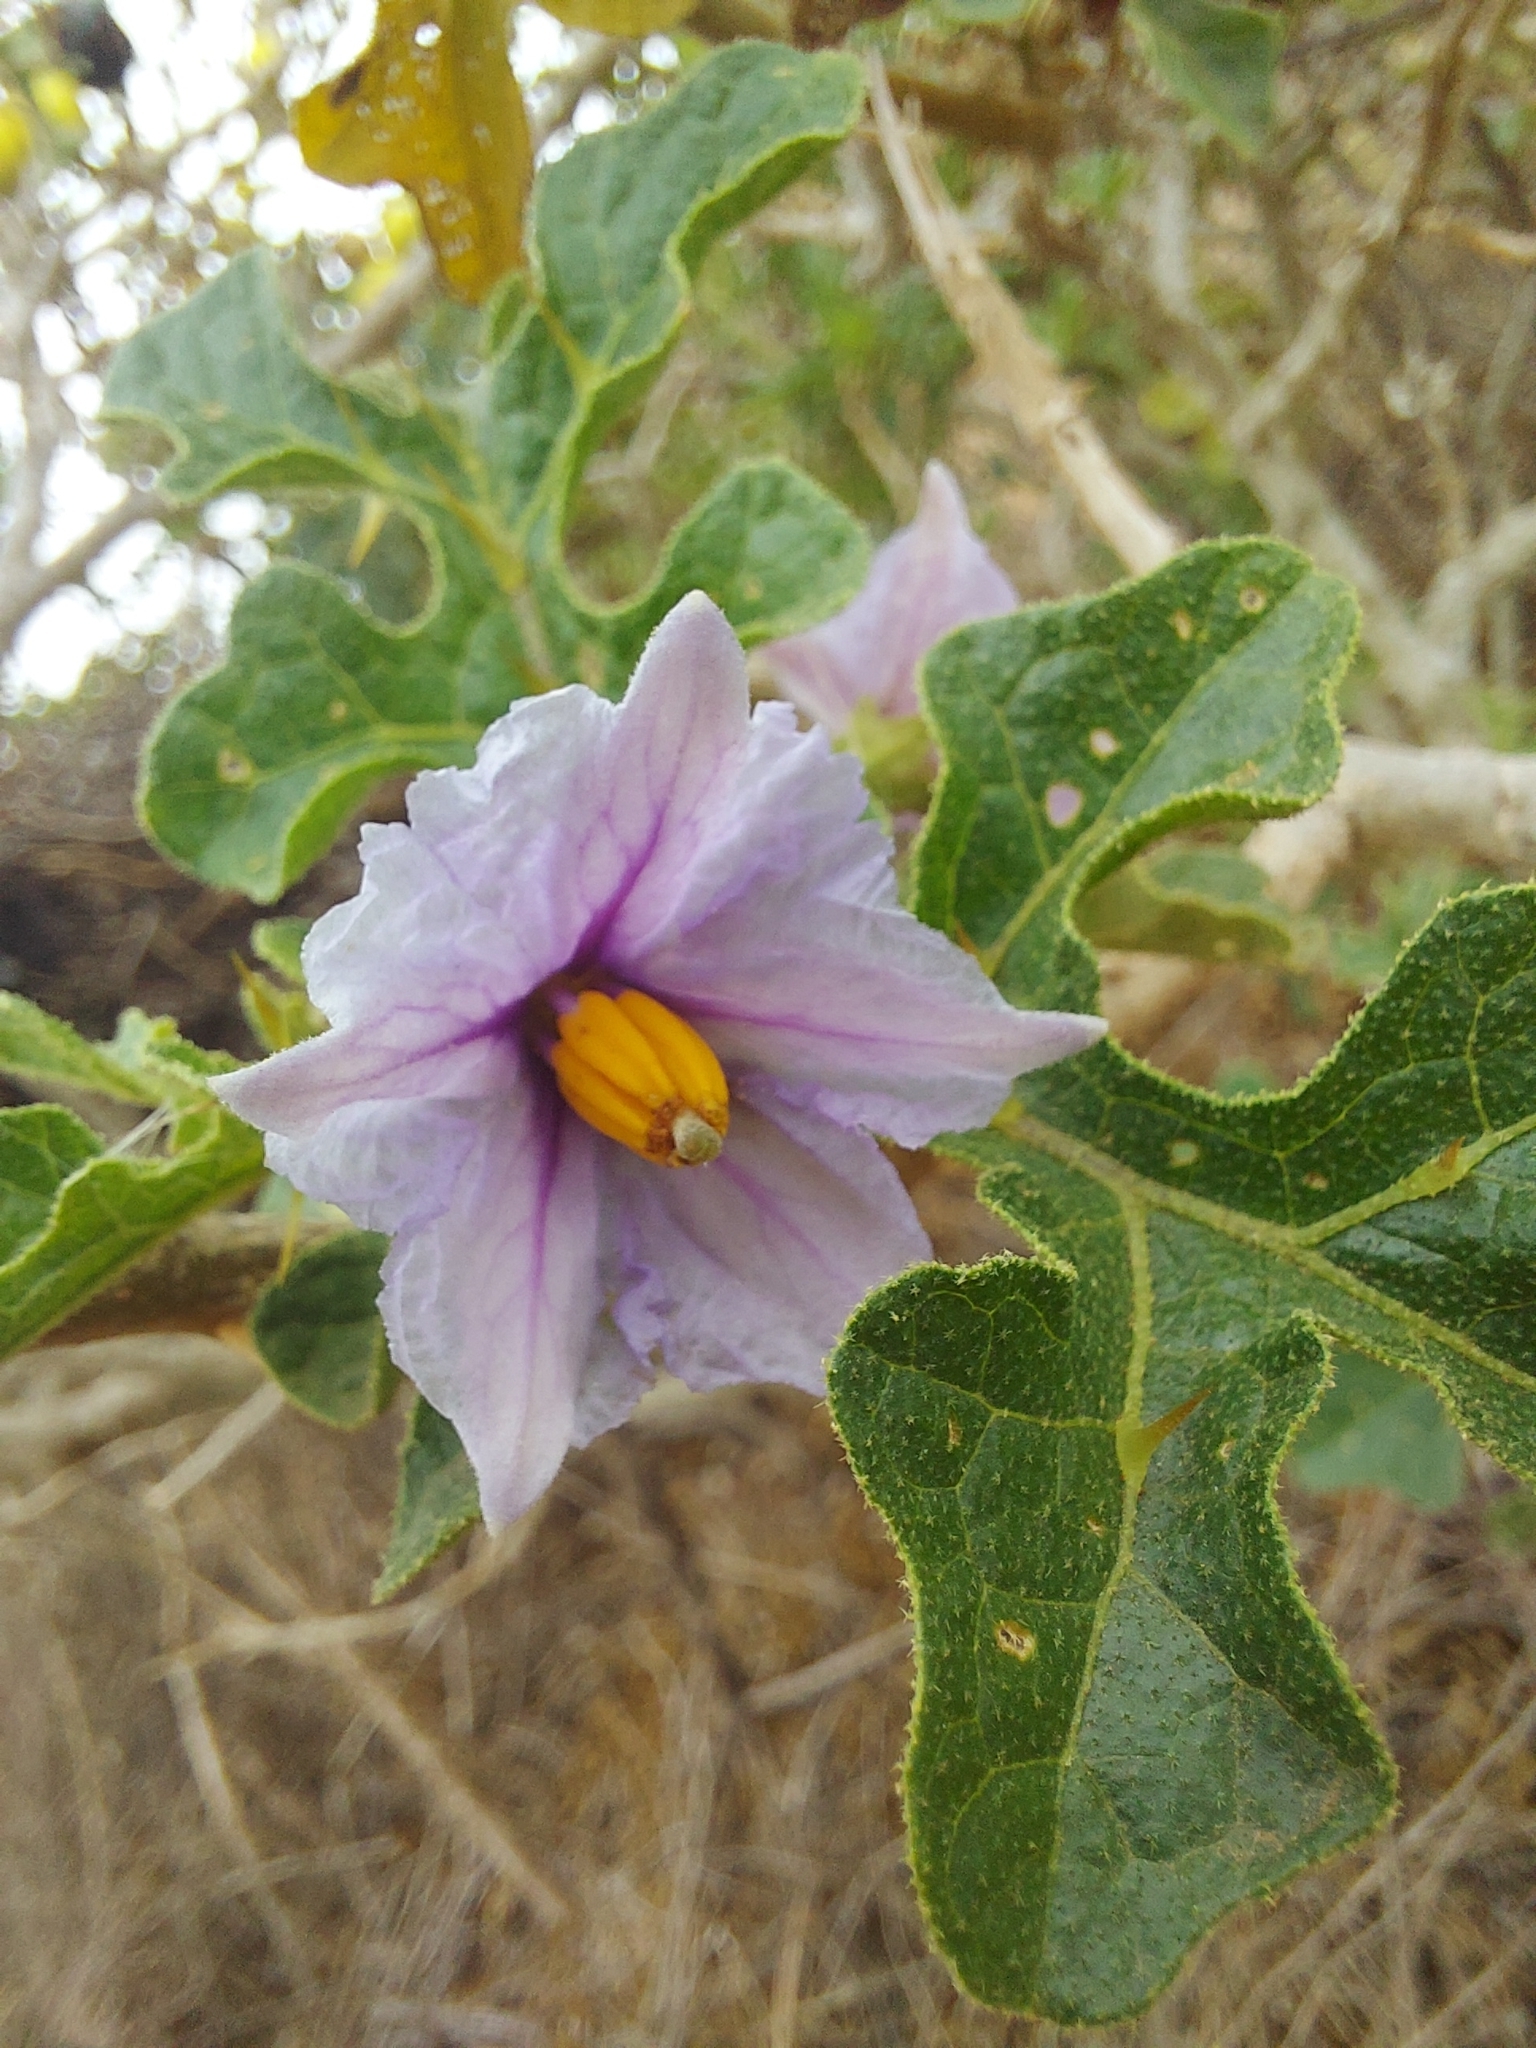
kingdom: Plantae
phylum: Tracheophyta
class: Magnoliopsida
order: Solanales
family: Solanaceae
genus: Solanum
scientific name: Solanum linnaeanum
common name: Nightshade
